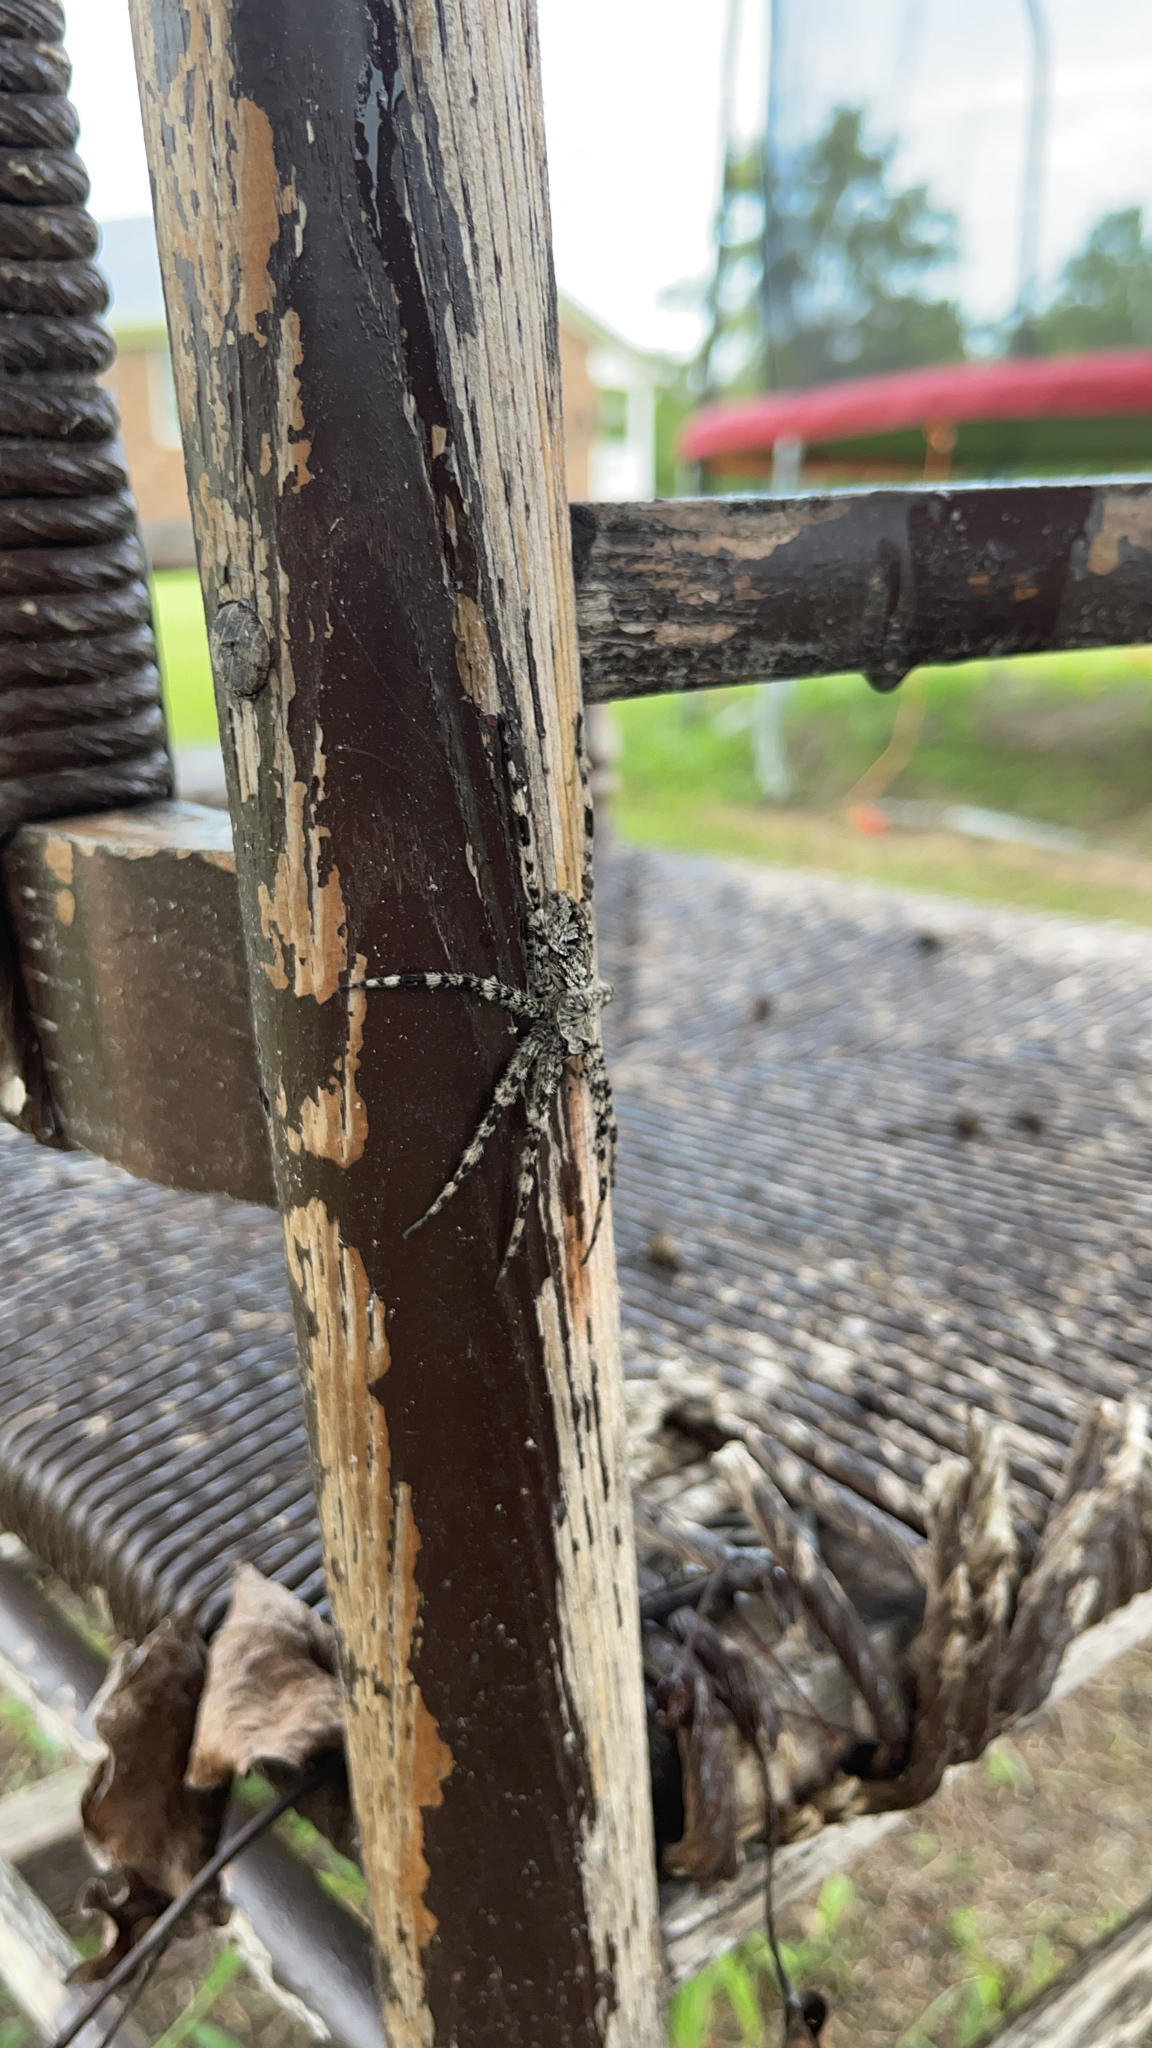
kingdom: Animalia
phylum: Arthropoda
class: Arachnida
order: Araneae
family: Pisauridae
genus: Dolomedes
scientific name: Dolomedes albineus
